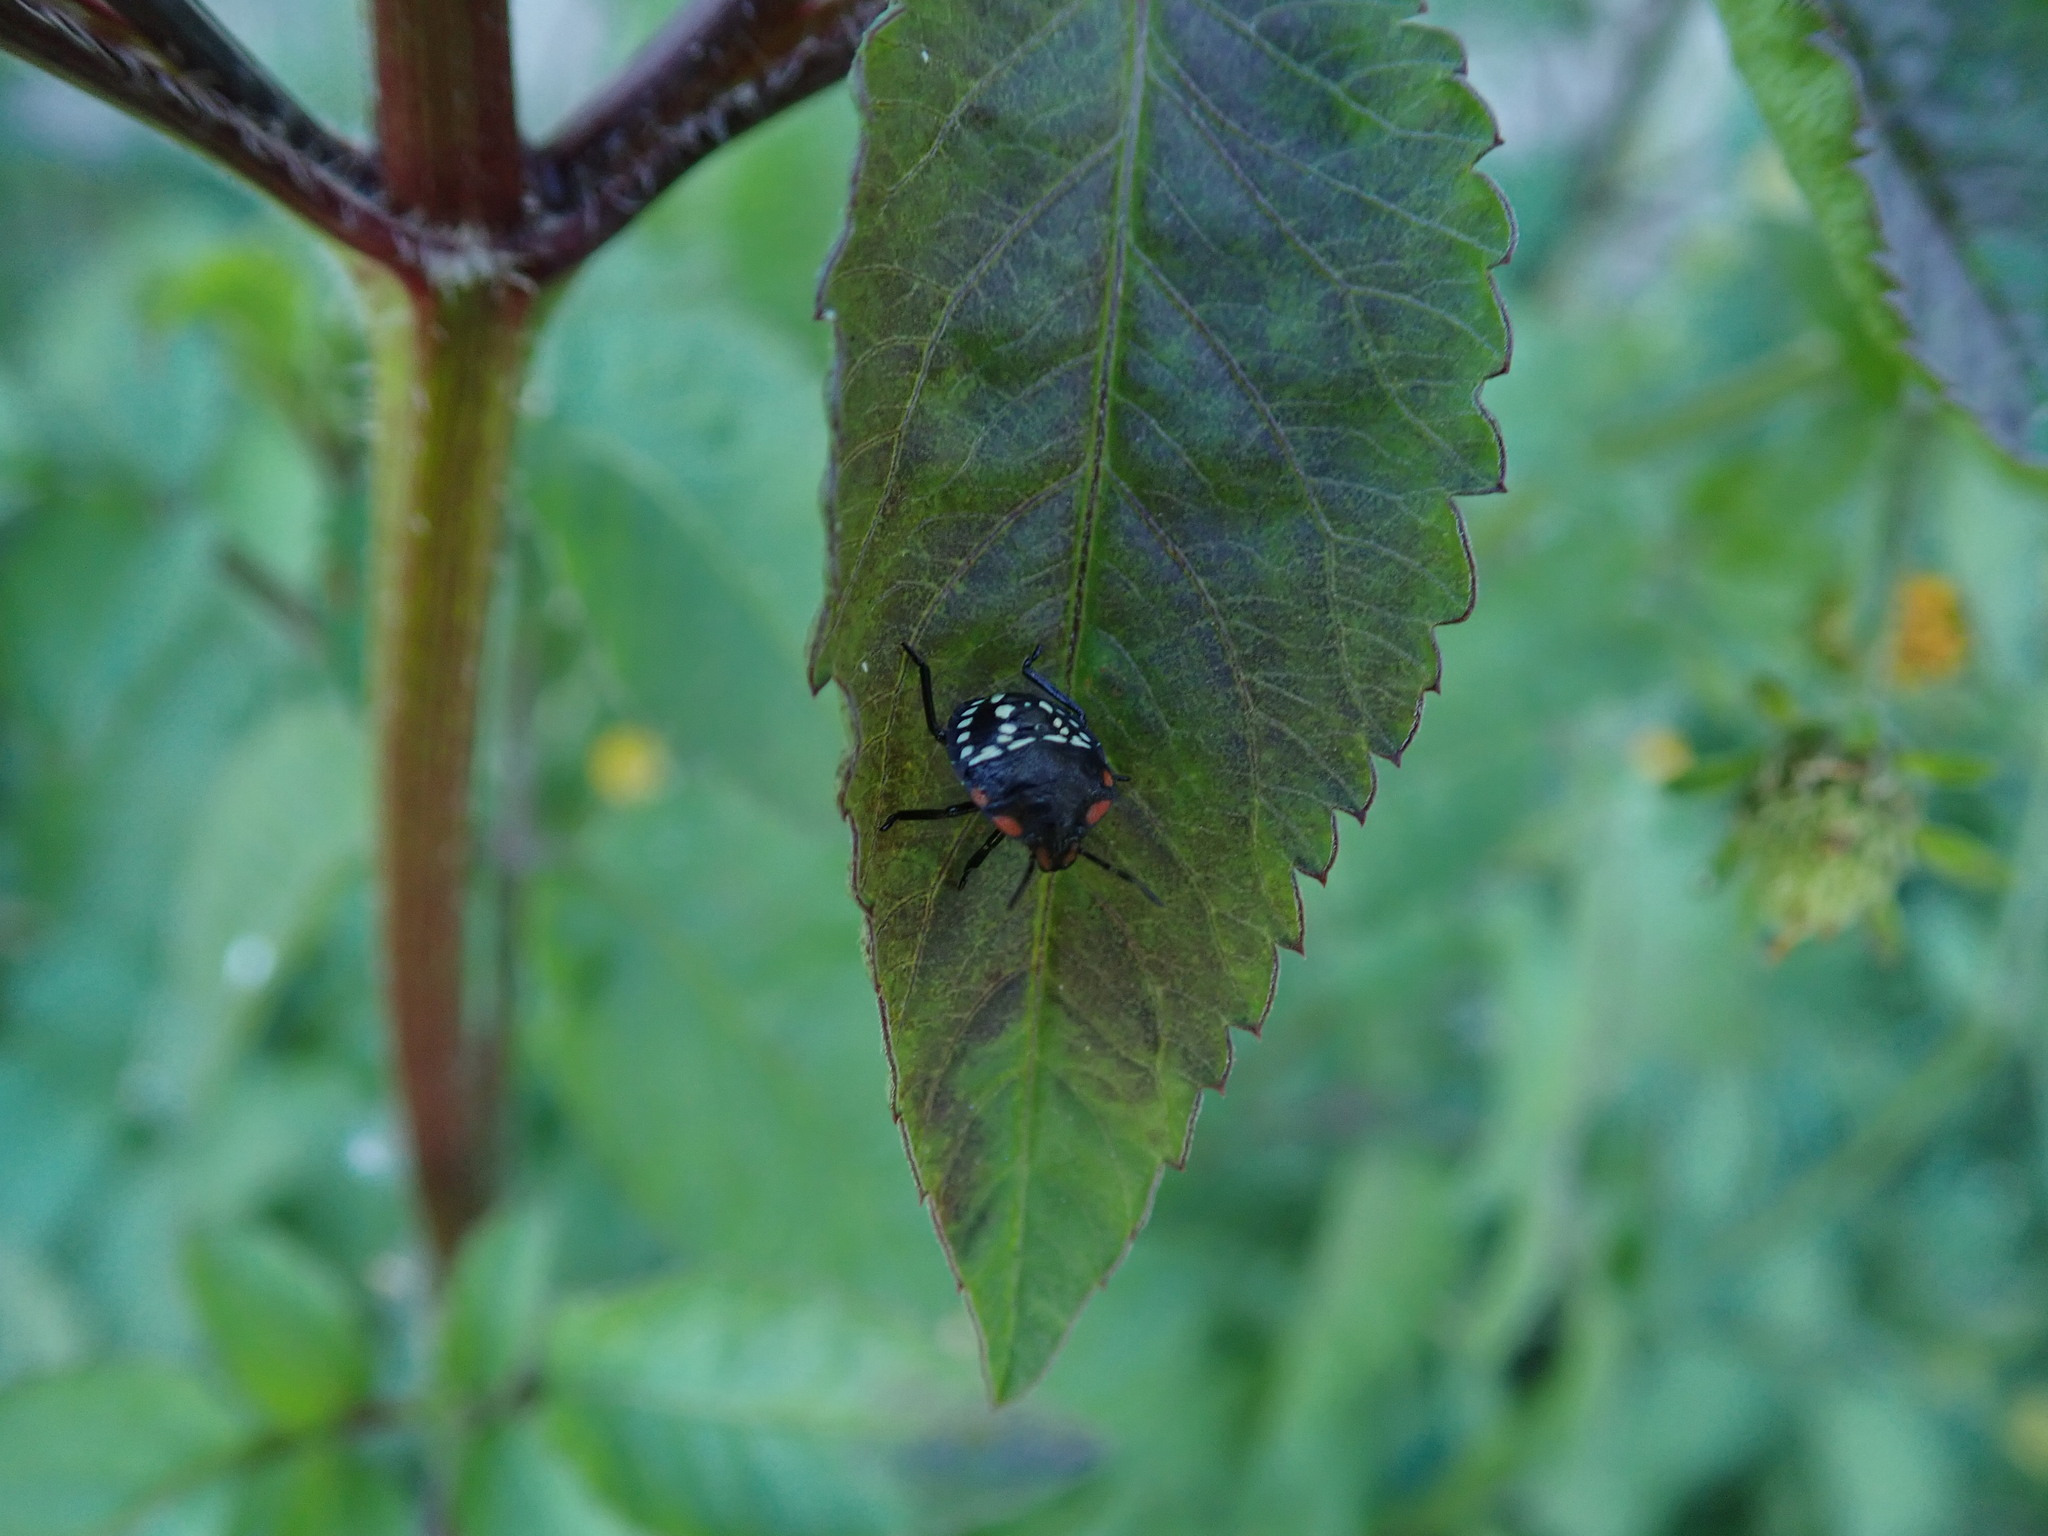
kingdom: Animalia
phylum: Arthropoda
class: Insecta
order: Hemiptera
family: Pentatomidae
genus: Nezara
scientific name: Nezara viridula
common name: Southern green stink bug
